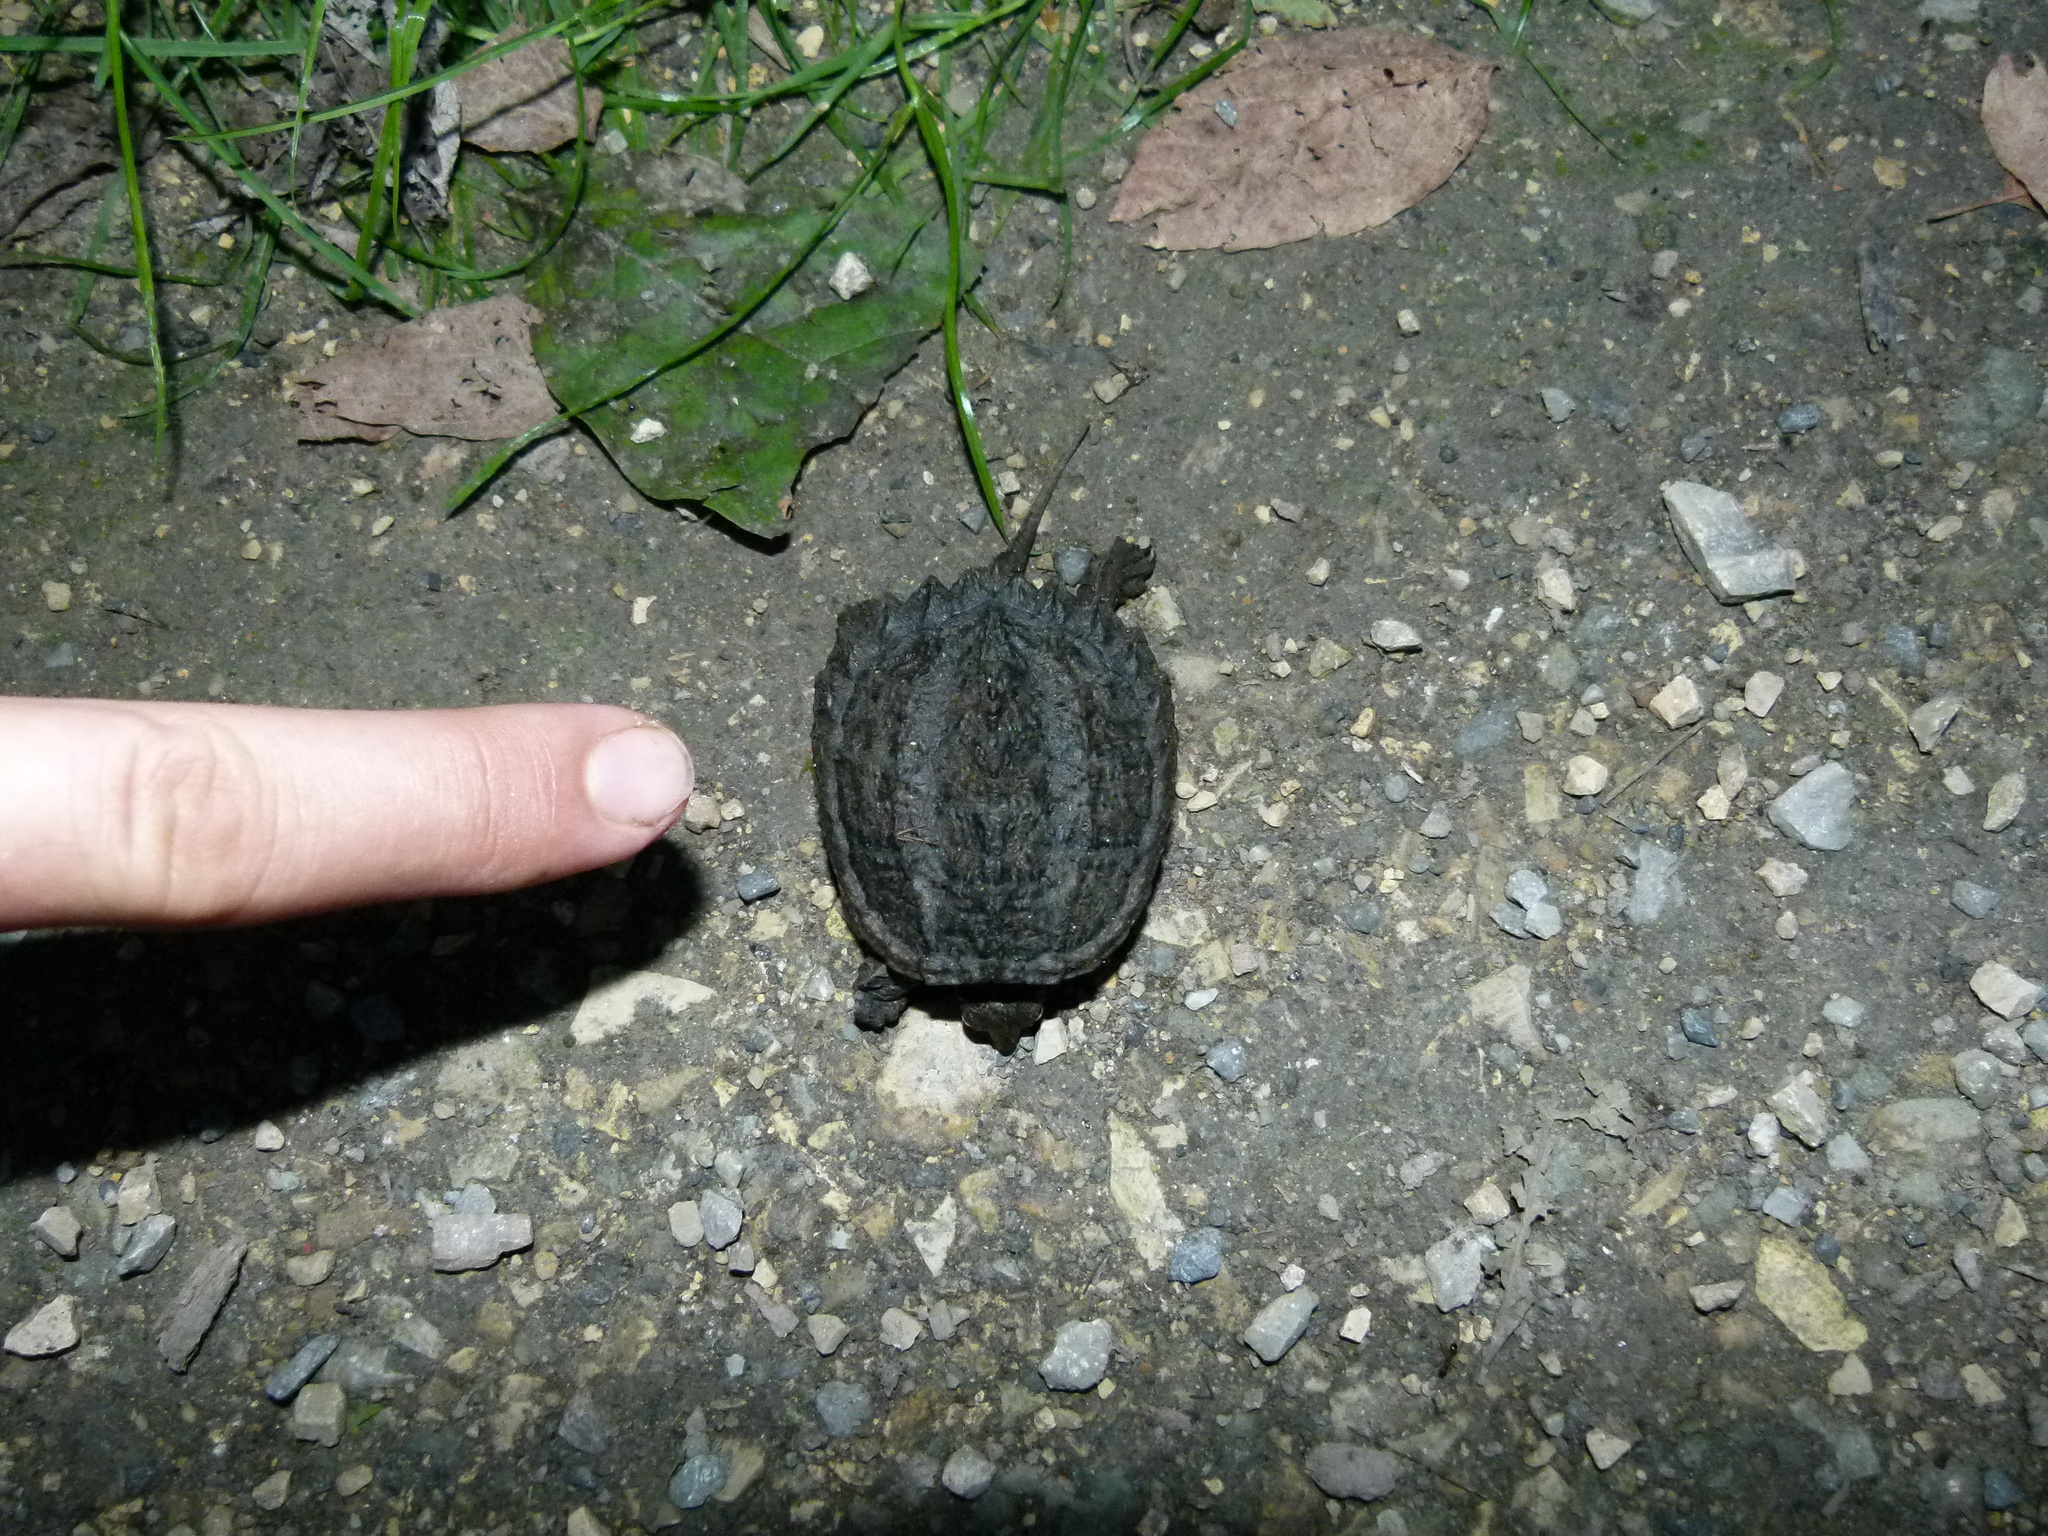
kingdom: Animalia
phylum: Chordata
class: Testudines
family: Chelydridae
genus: Chelydra
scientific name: Chelydra serpentina
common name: Common snapping turtle
